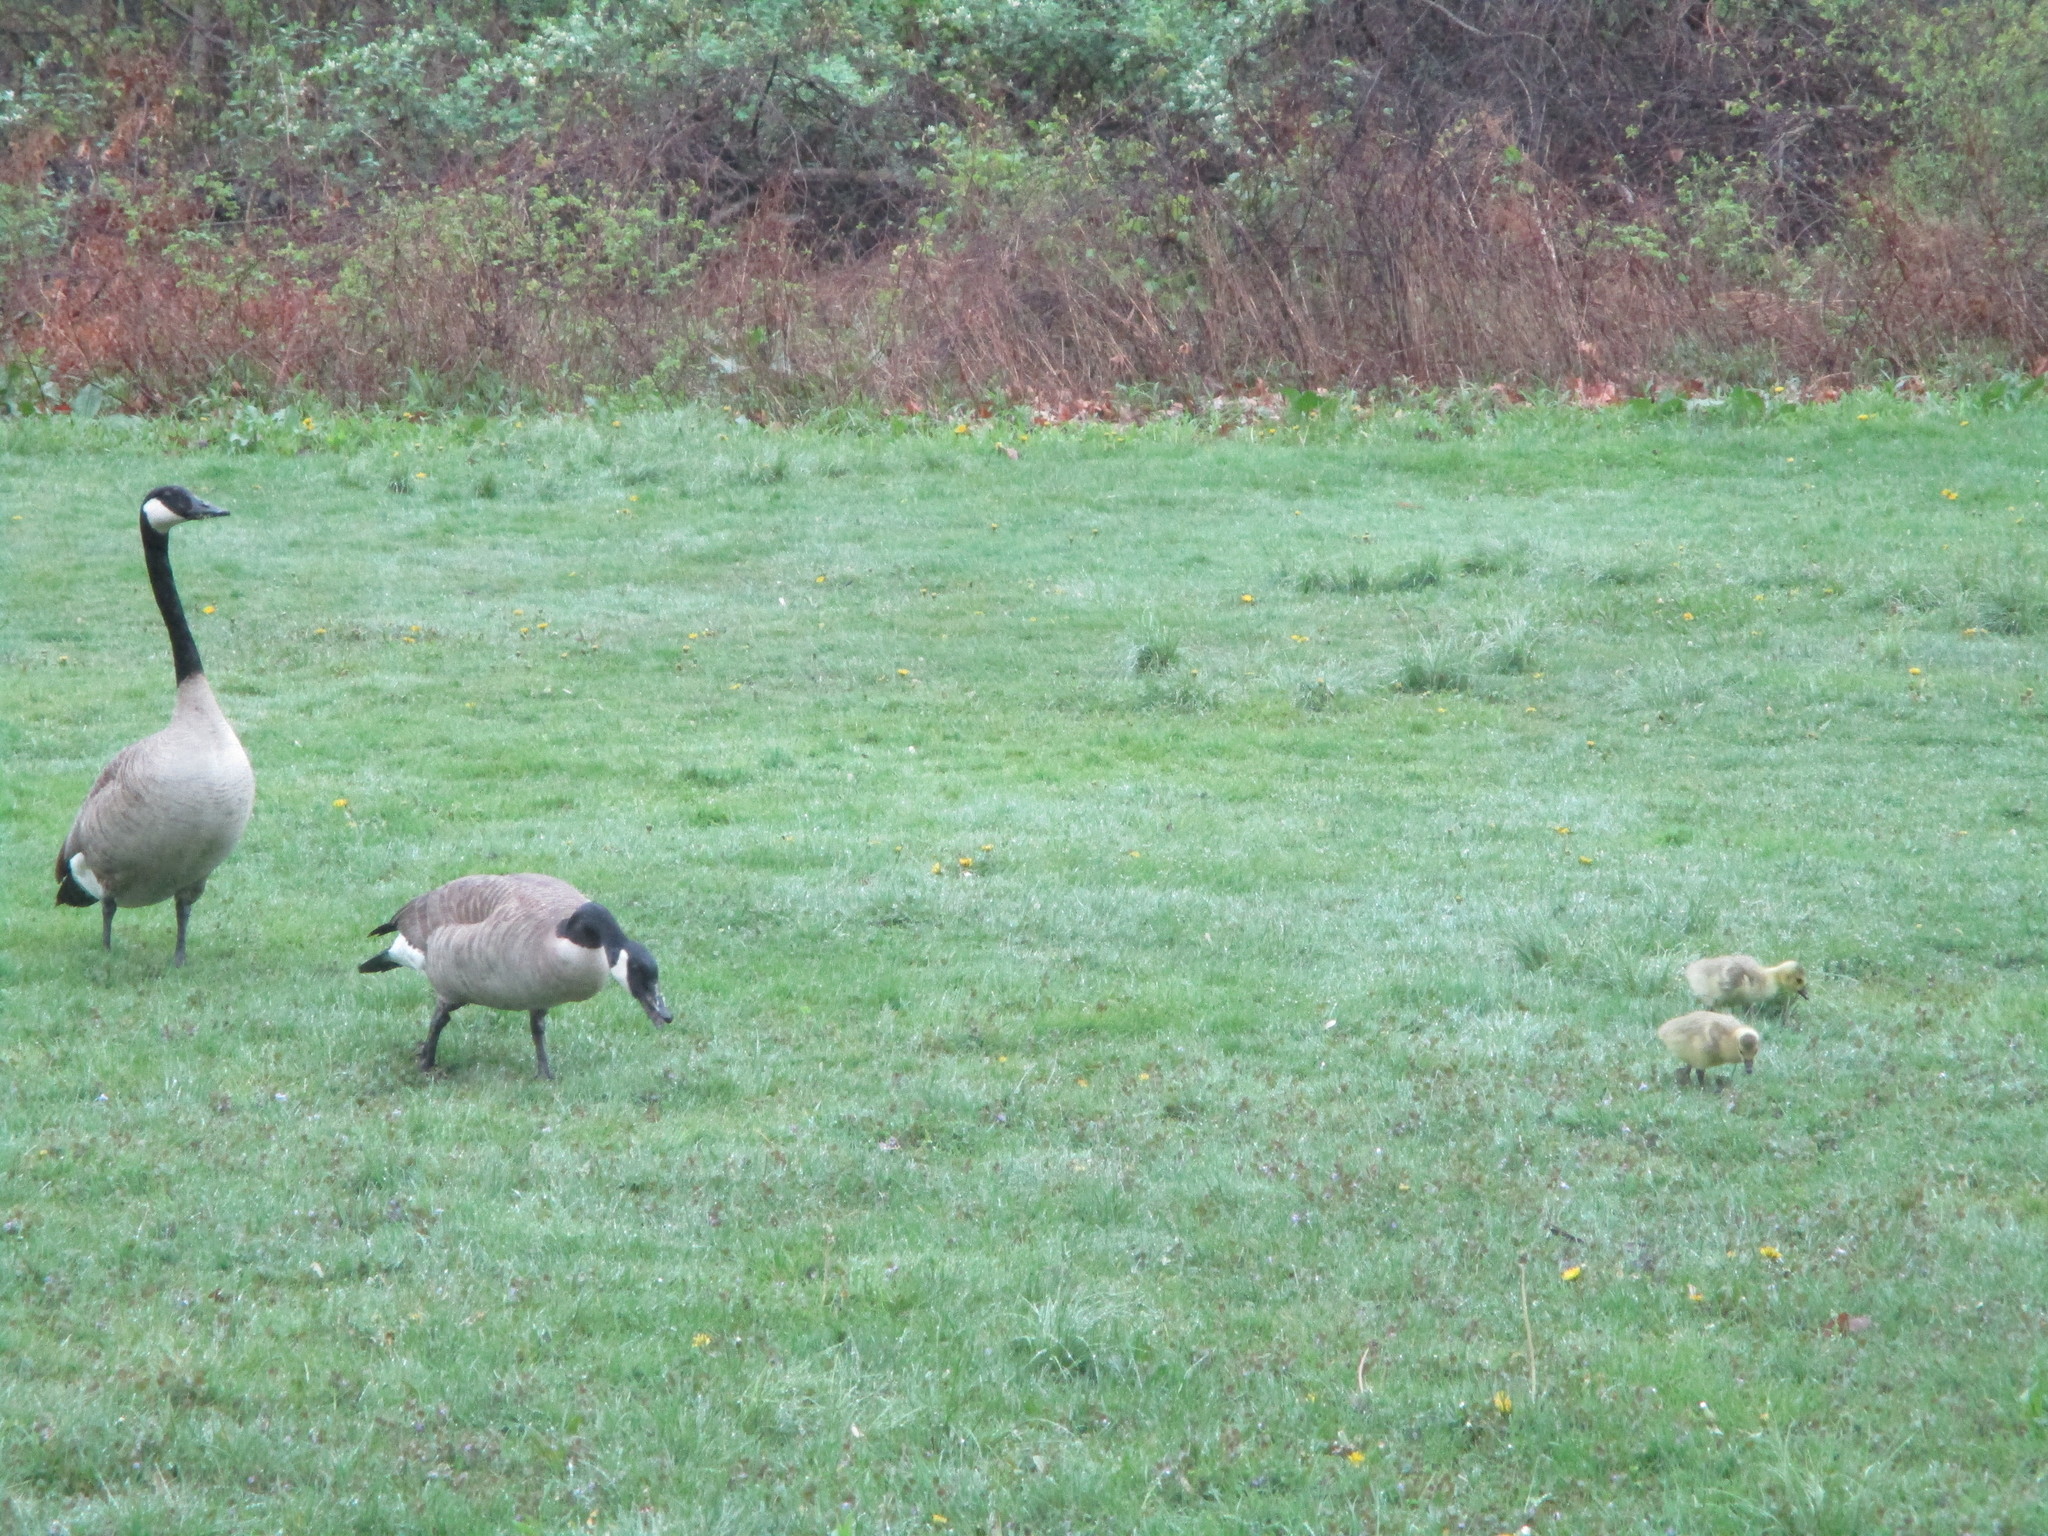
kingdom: Animalia
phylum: Chordata
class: Aves
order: Anseriformes
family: Anatidae
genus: Branta
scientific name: Branta canadensis
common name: Canada goose
